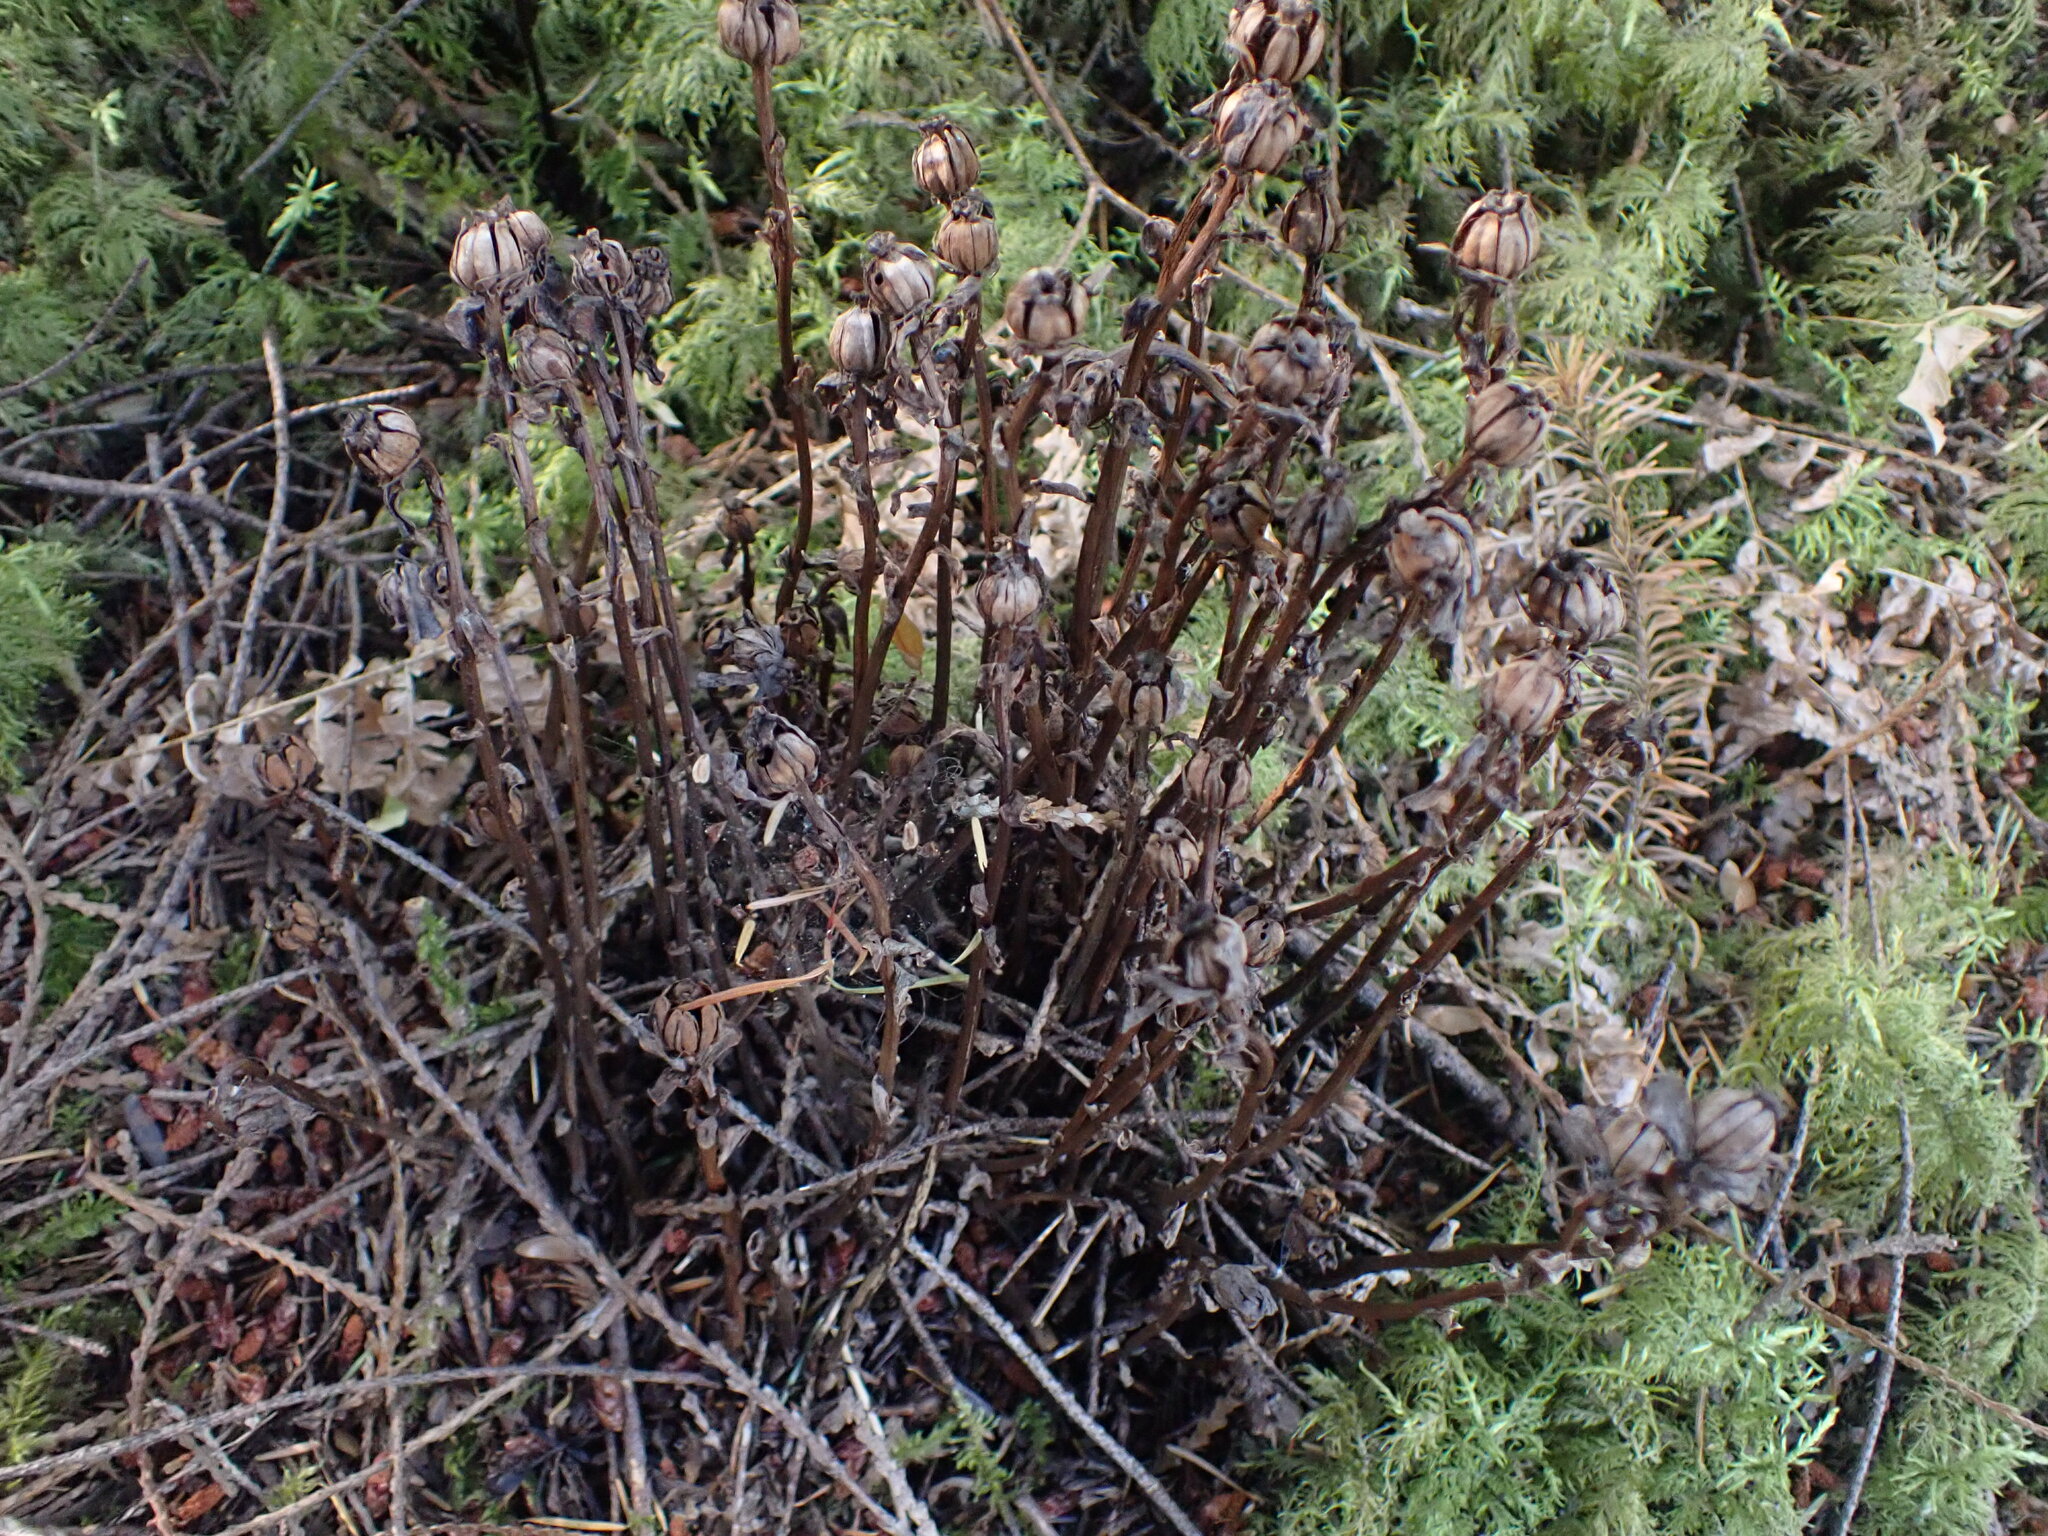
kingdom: Plantae
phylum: Tracheophyta
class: Magnoliopsida
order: Ericales
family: Ericaceae
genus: Monotropa
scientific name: Monotropa uniflora
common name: Convulsion root
